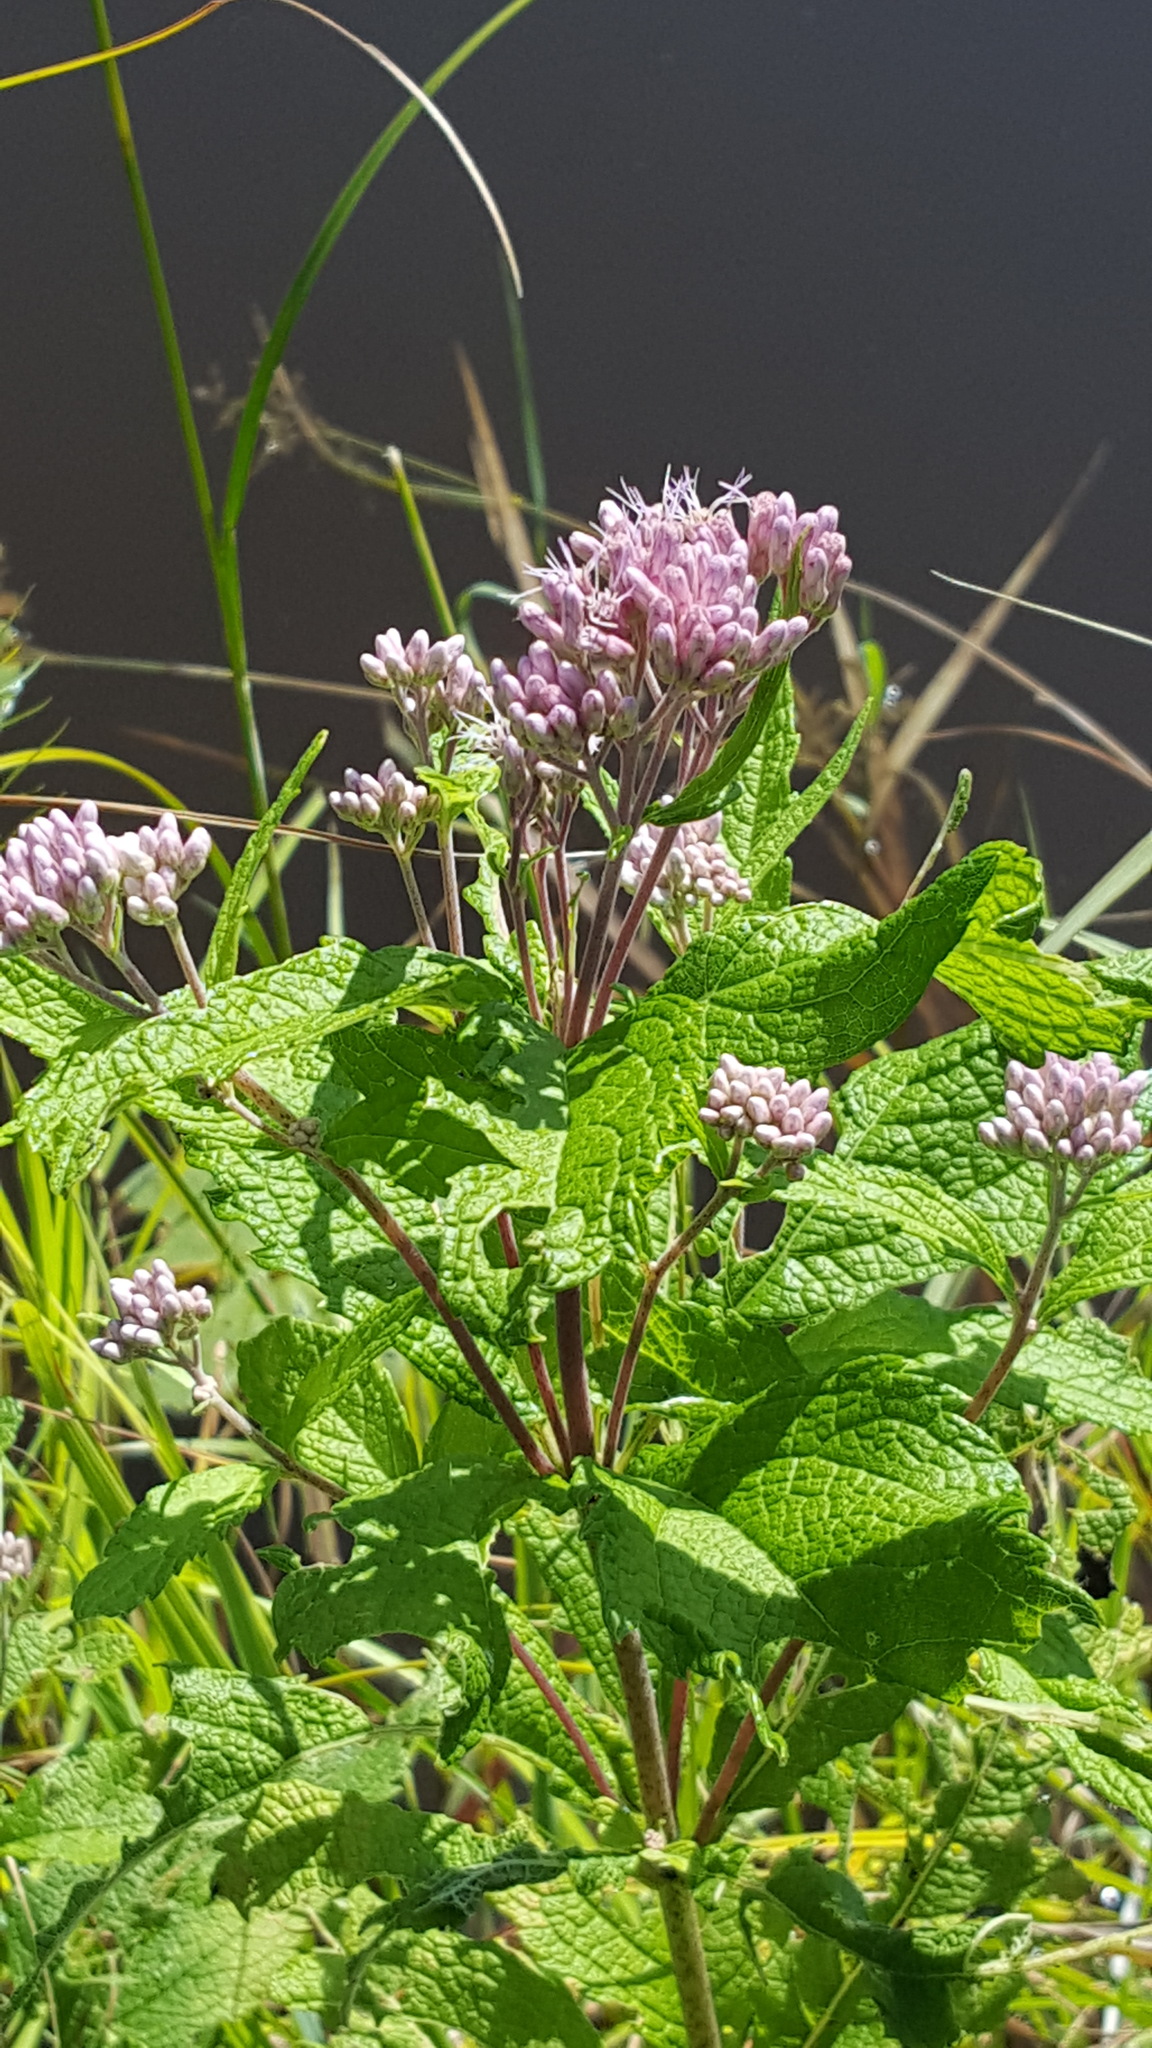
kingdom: Plantae
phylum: Tracheophyta
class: Magnoliopsida
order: Asterales
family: Asteraceae
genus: Eutrochium
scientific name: Eutrochium maculatum
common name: Spotted joe pye weed
